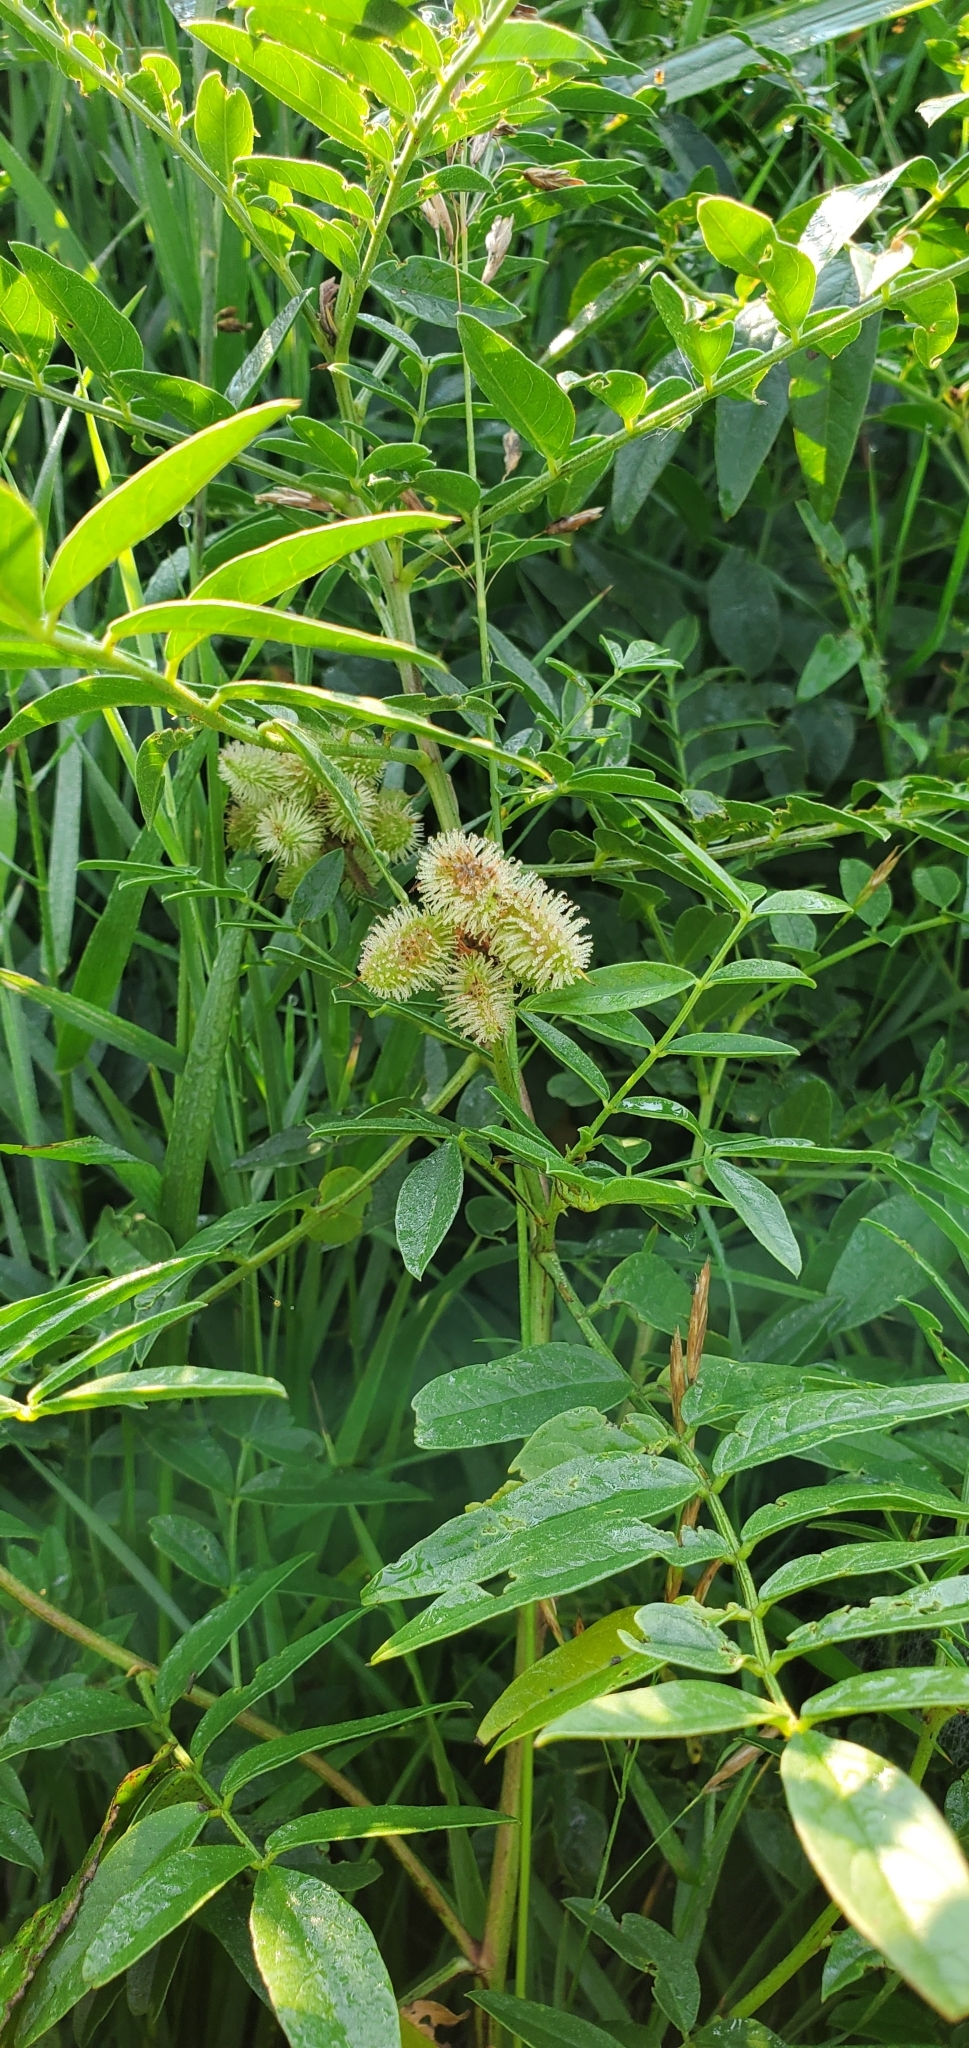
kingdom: Plantae
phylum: Tracheophyta
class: Magnoliopsida
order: Fabales
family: Fabaceae
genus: Glycyrrhiza
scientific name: Glycyrrhiza lepidota
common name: American liquorice
